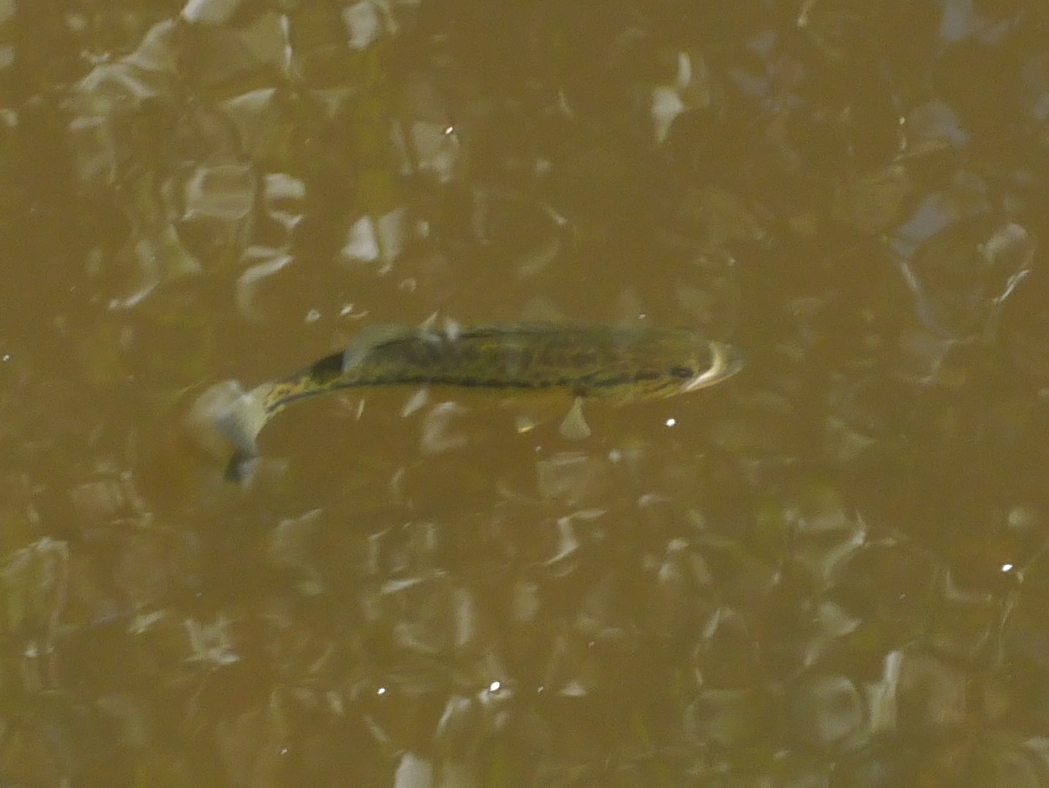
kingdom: Animalia
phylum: Chordata
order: Perciformes
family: Centrarchidae
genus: Micropterus
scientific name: Micropterus
